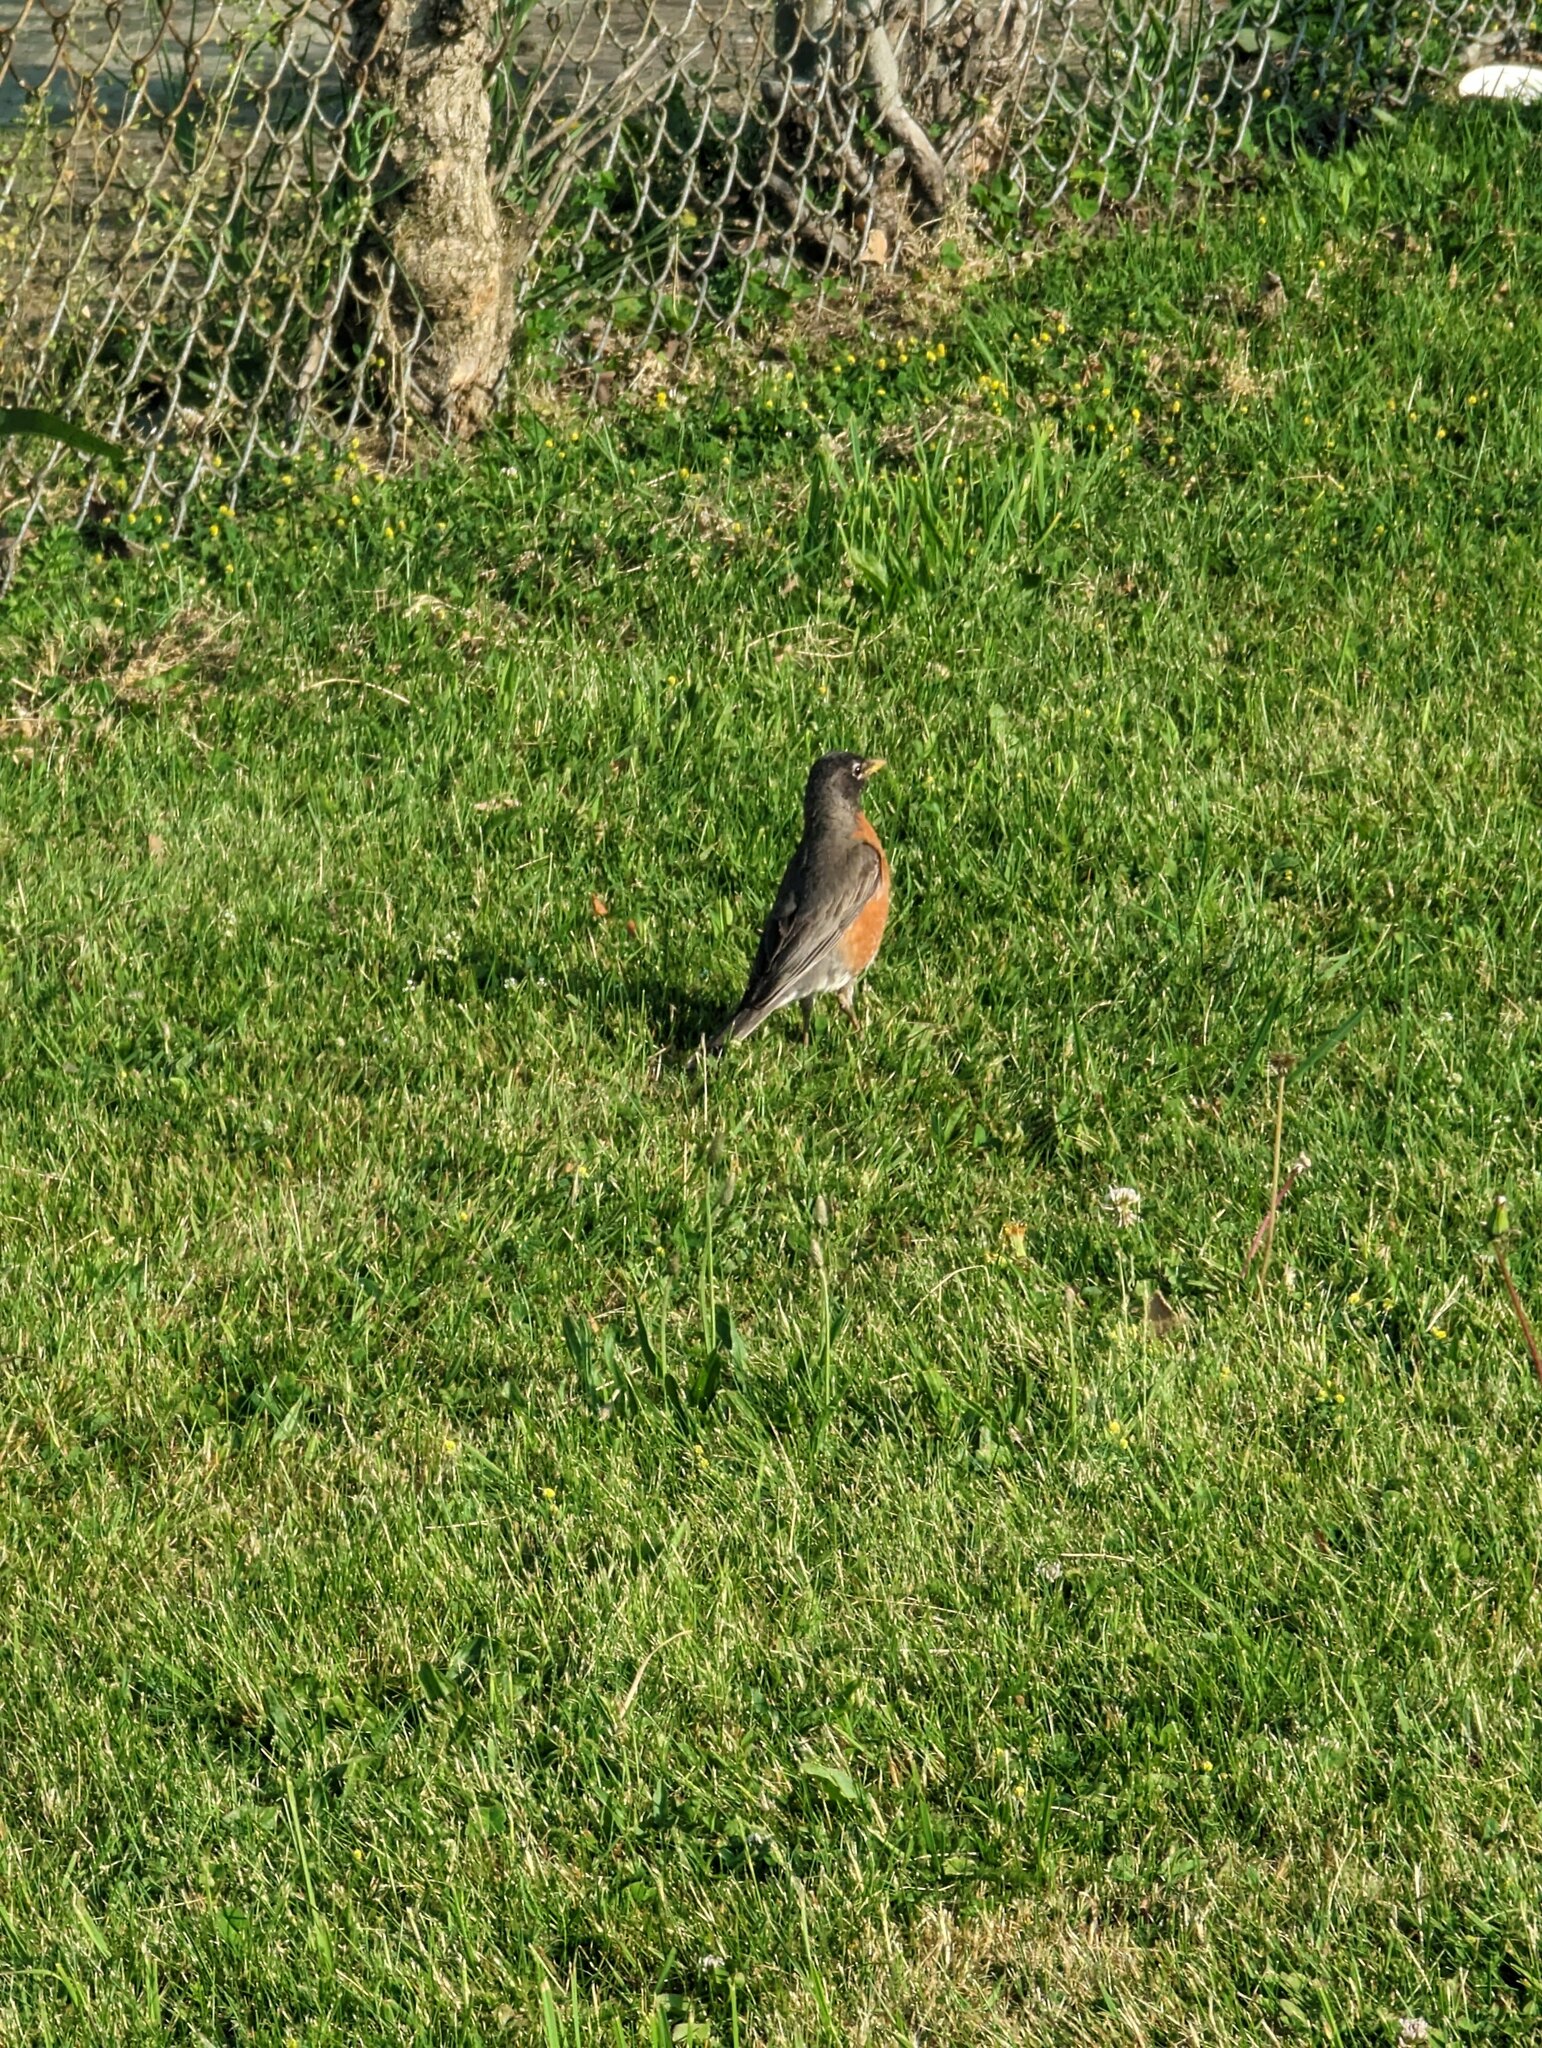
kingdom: Animalia
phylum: Chordata
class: Aves
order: Passeriformes
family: Turdidae
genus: Turdus
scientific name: Turdus migratorius
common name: American robin
